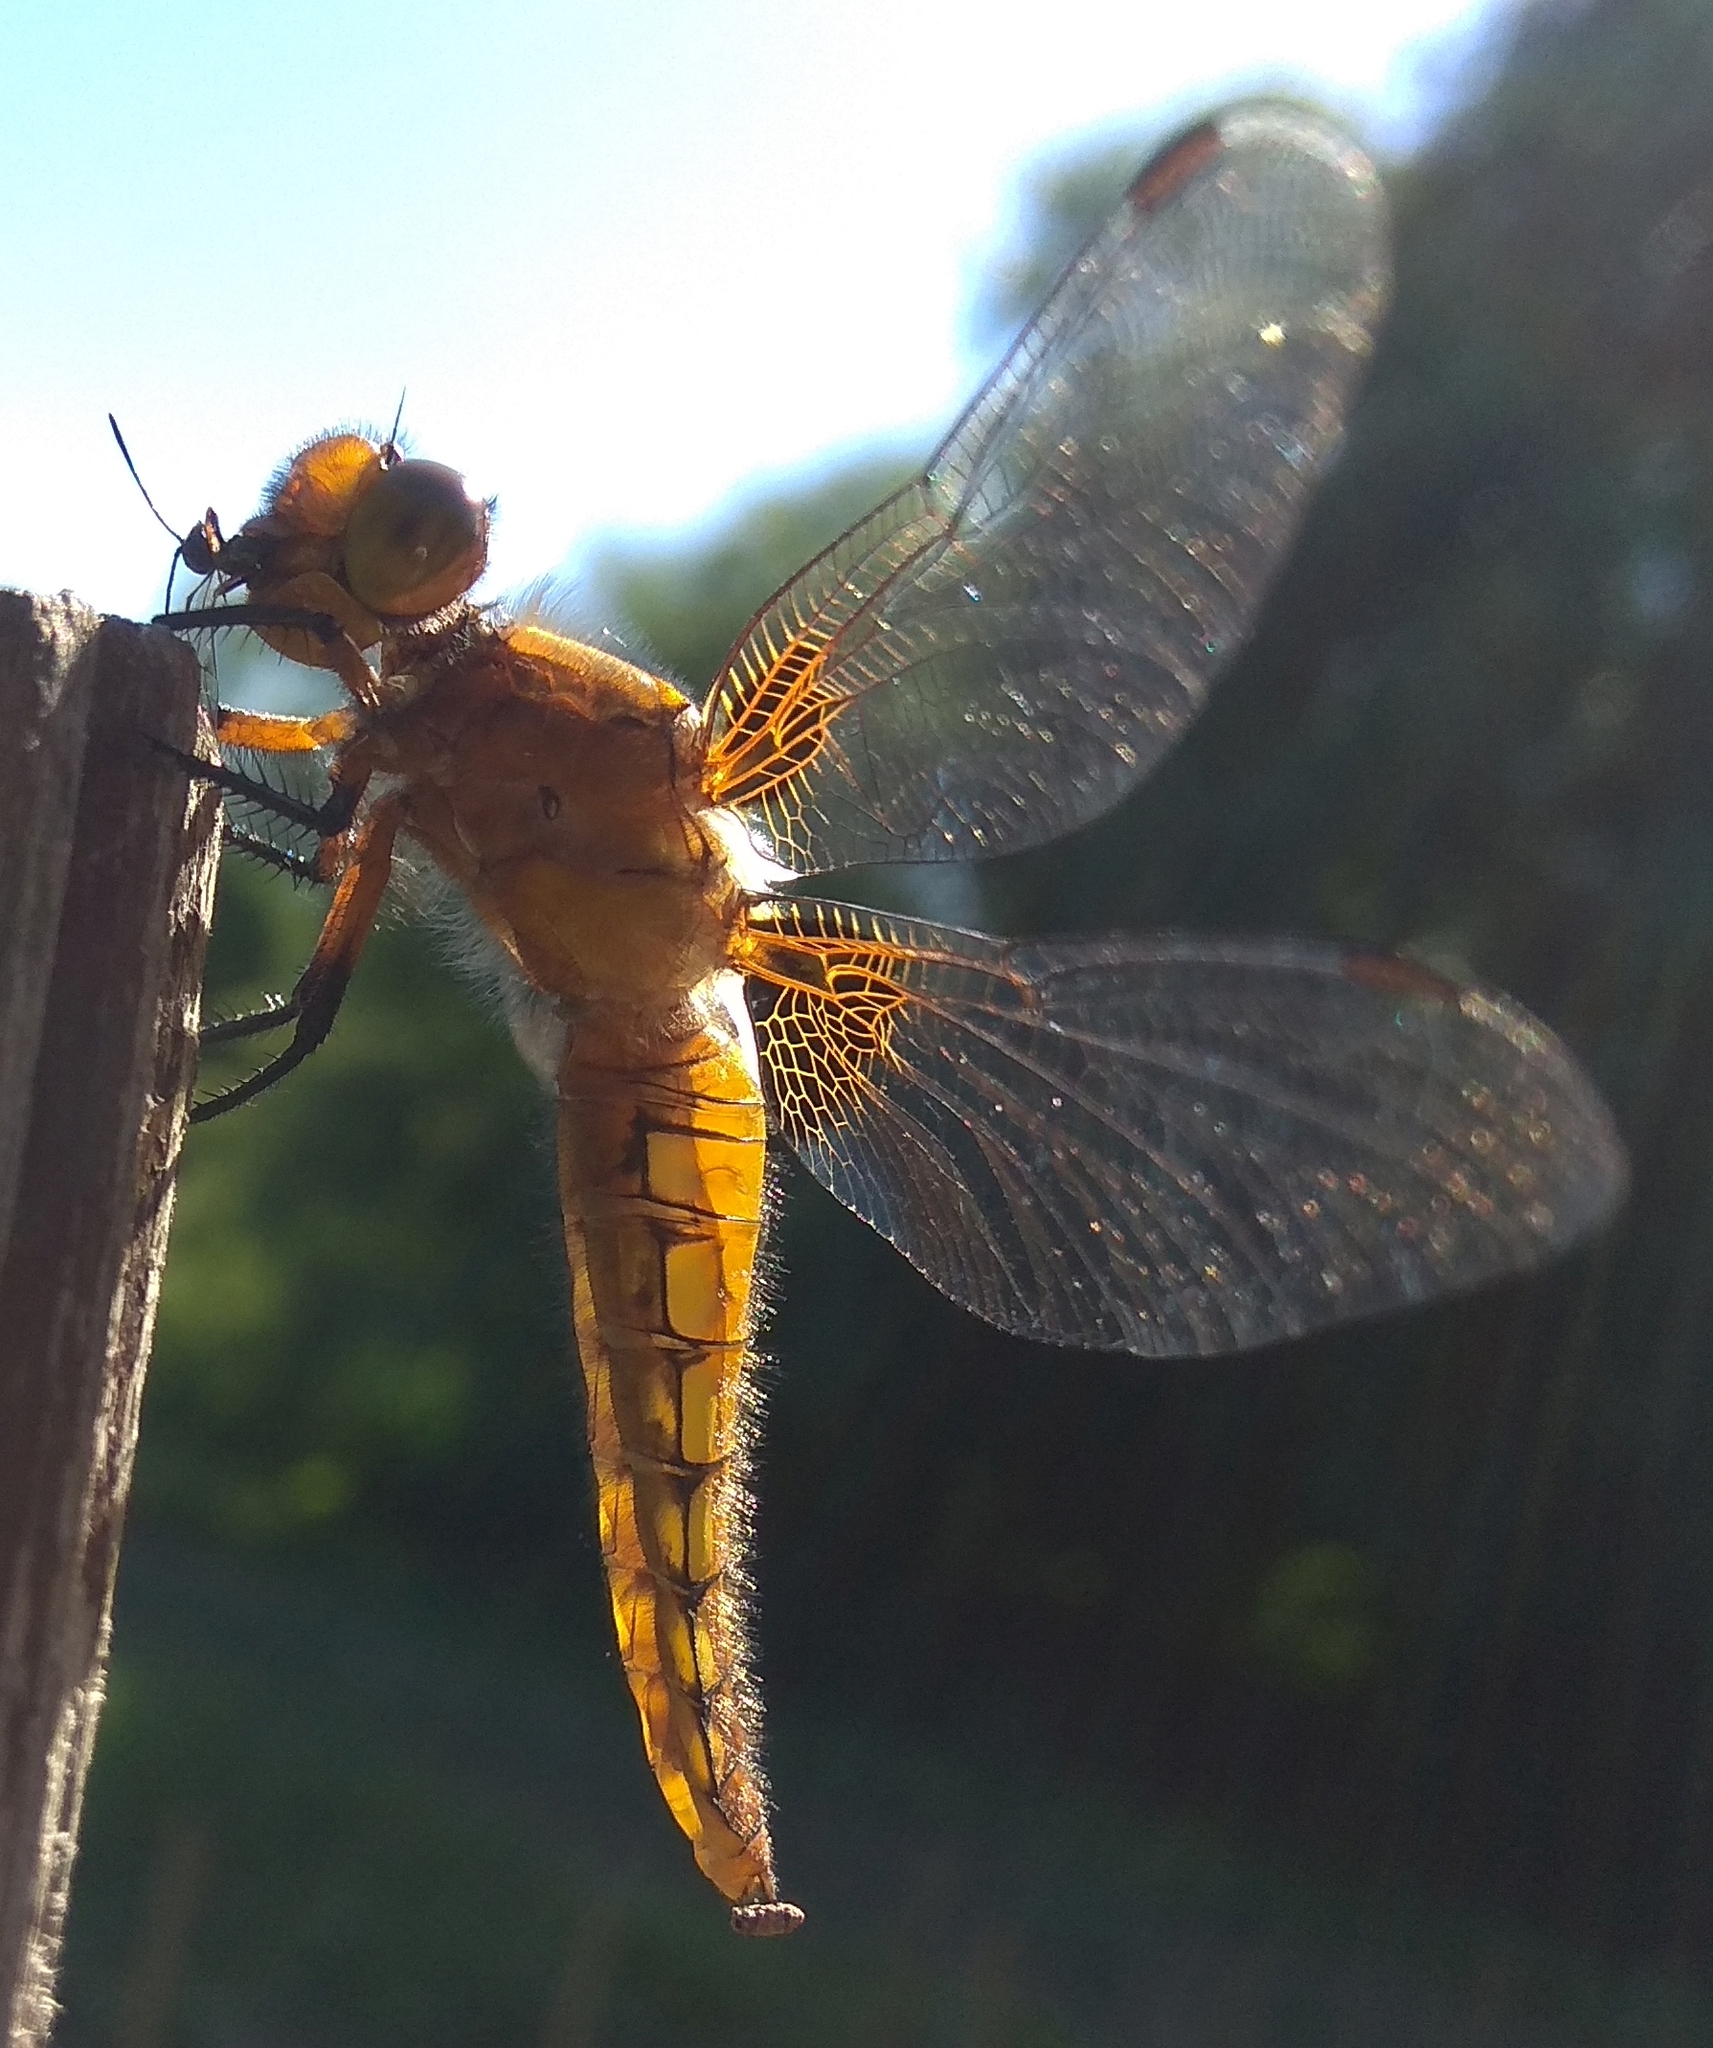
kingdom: Animalia
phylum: Arthropoda
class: Insecta
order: Odonata
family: Libellulidae
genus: Libellula
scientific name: Libellula depressa
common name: Broad-bodied chaser
